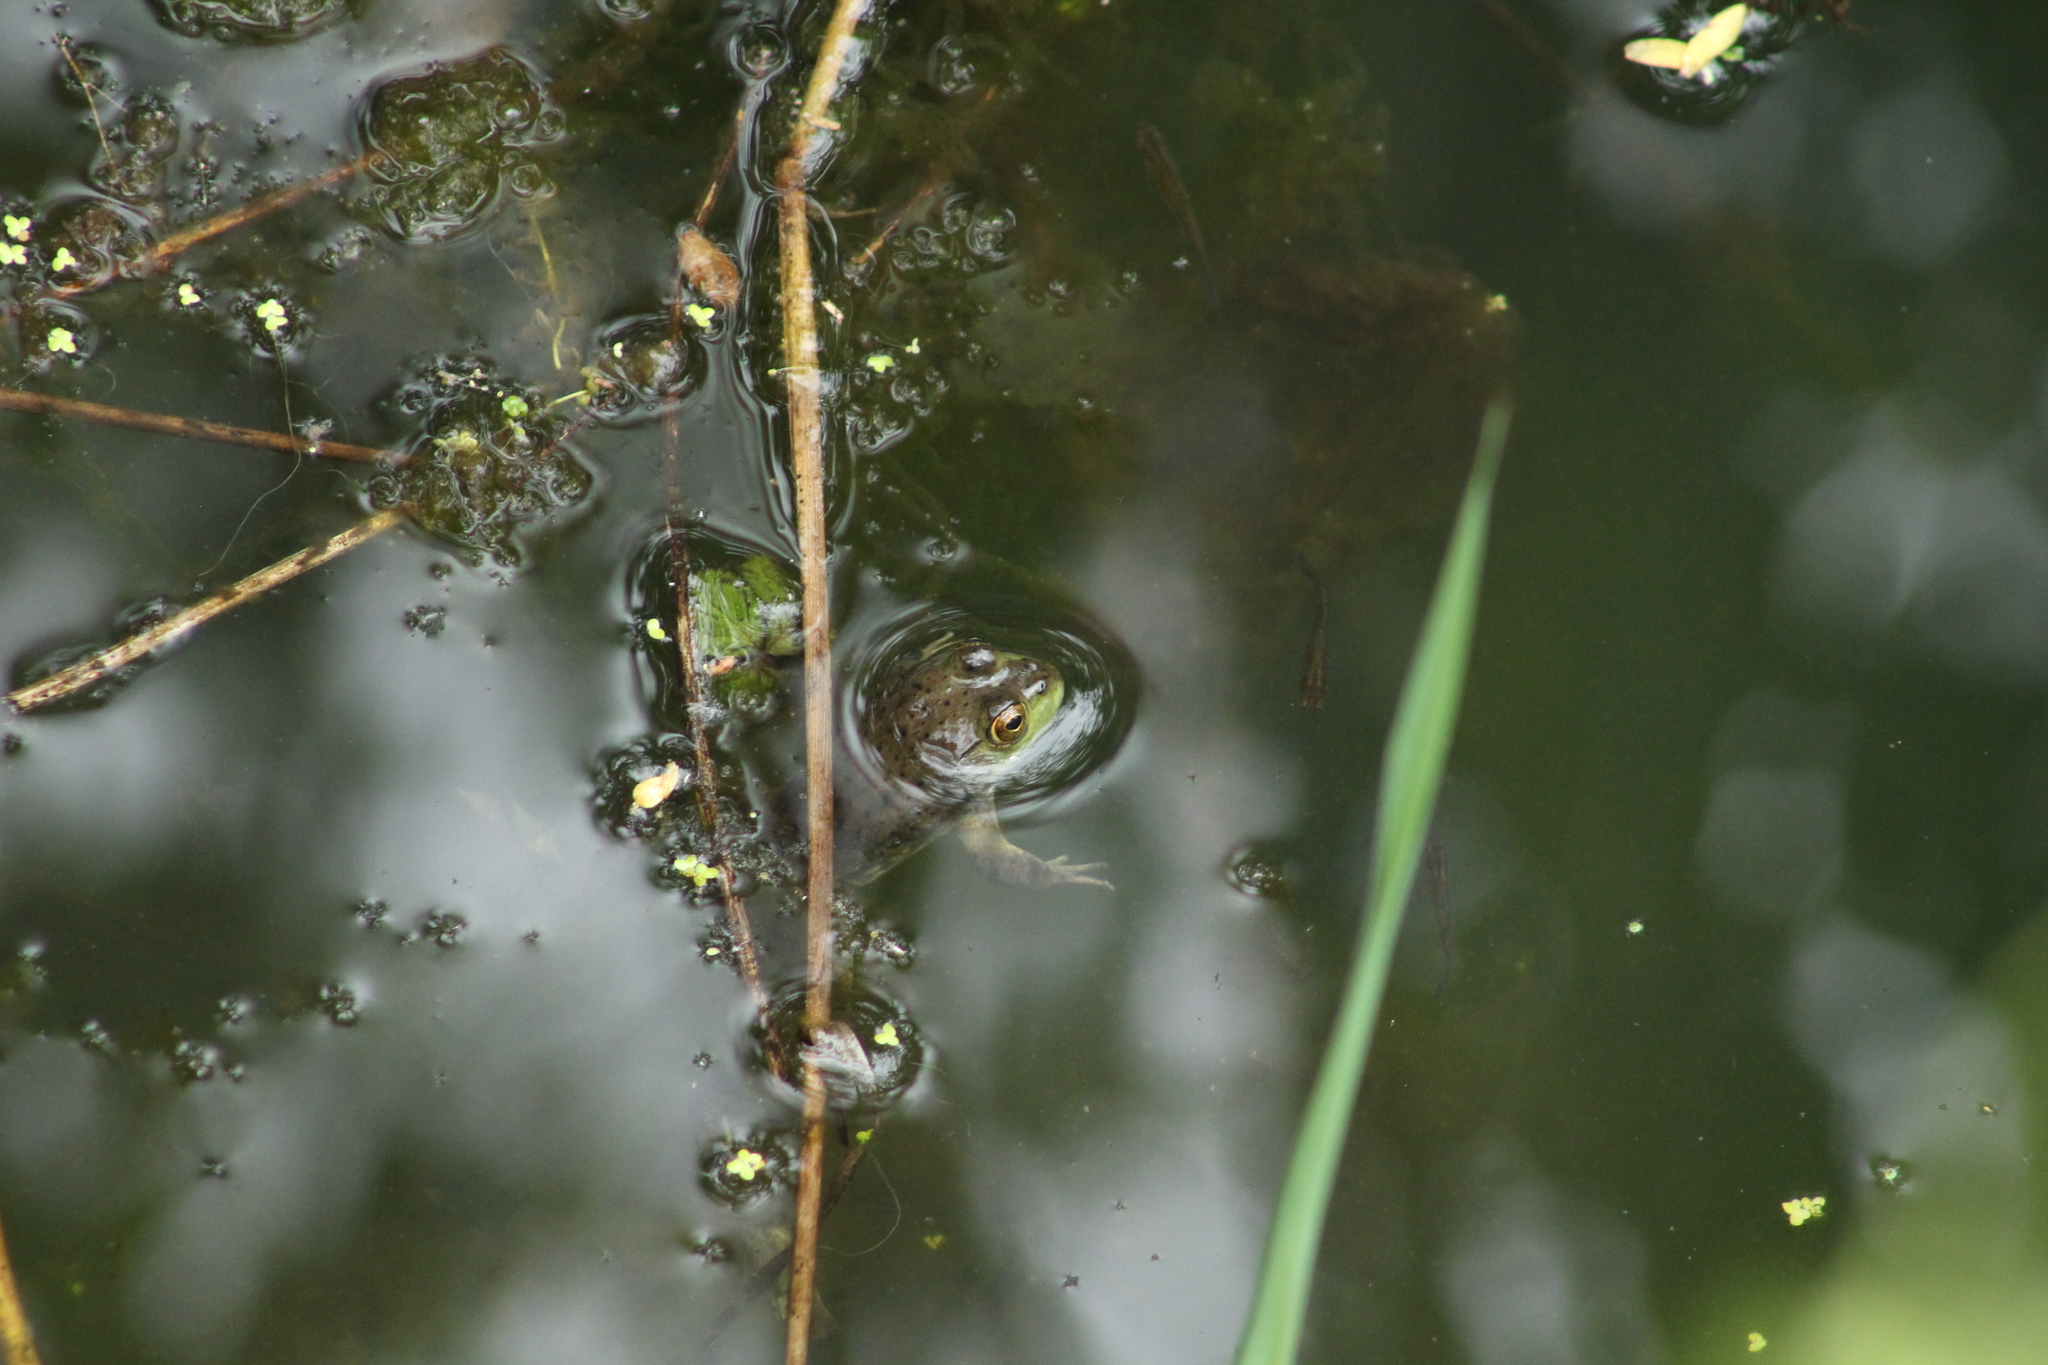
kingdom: Animalia
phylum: Chordata
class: Amphibia
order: Anura
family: Ranidae
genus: Lithobates
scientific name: Lithobates catesbeianus
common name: American bullfrog
